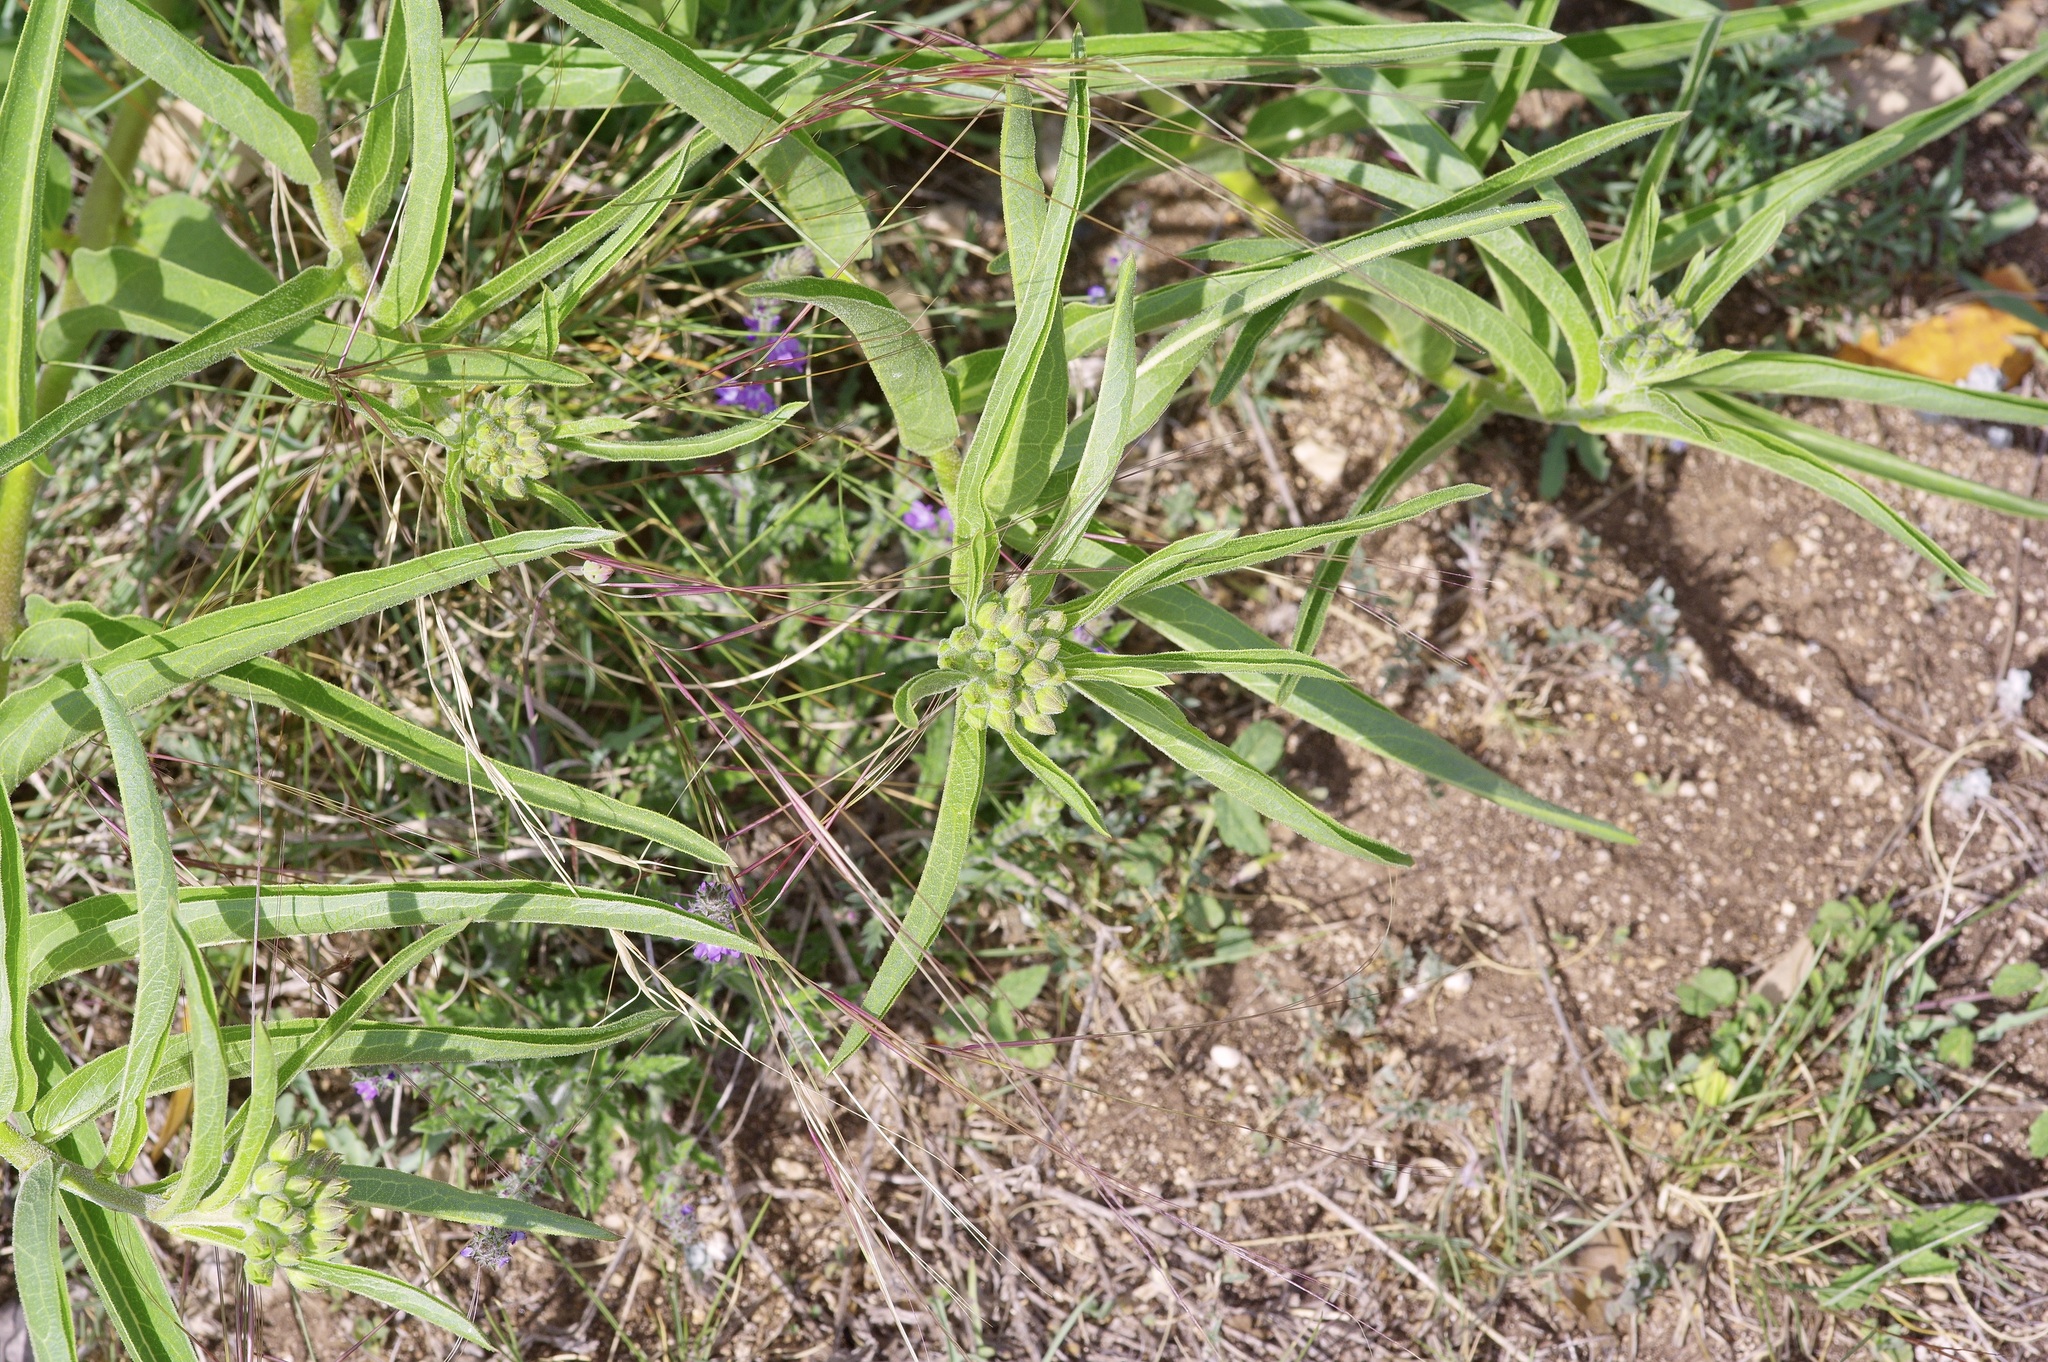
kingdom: Plantae
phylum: Tracheophyta
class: Magnoliopsida
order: Gentianales
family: Apocynaceae
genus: Asclepias
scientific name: Asclepias asperula
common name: Antelope horns
